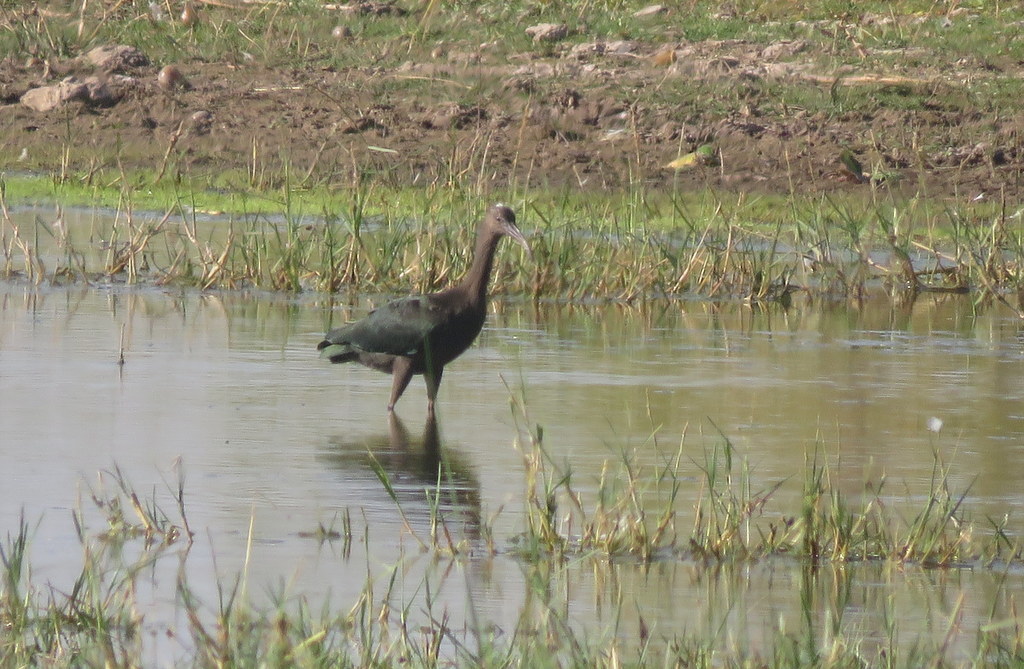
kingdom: Animalia
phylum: Chordata
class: Aves
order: Pelecaniformes
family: Threskiornithidae
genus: Plegadis
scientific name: Plegadis chihi
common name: White-faced ibis
